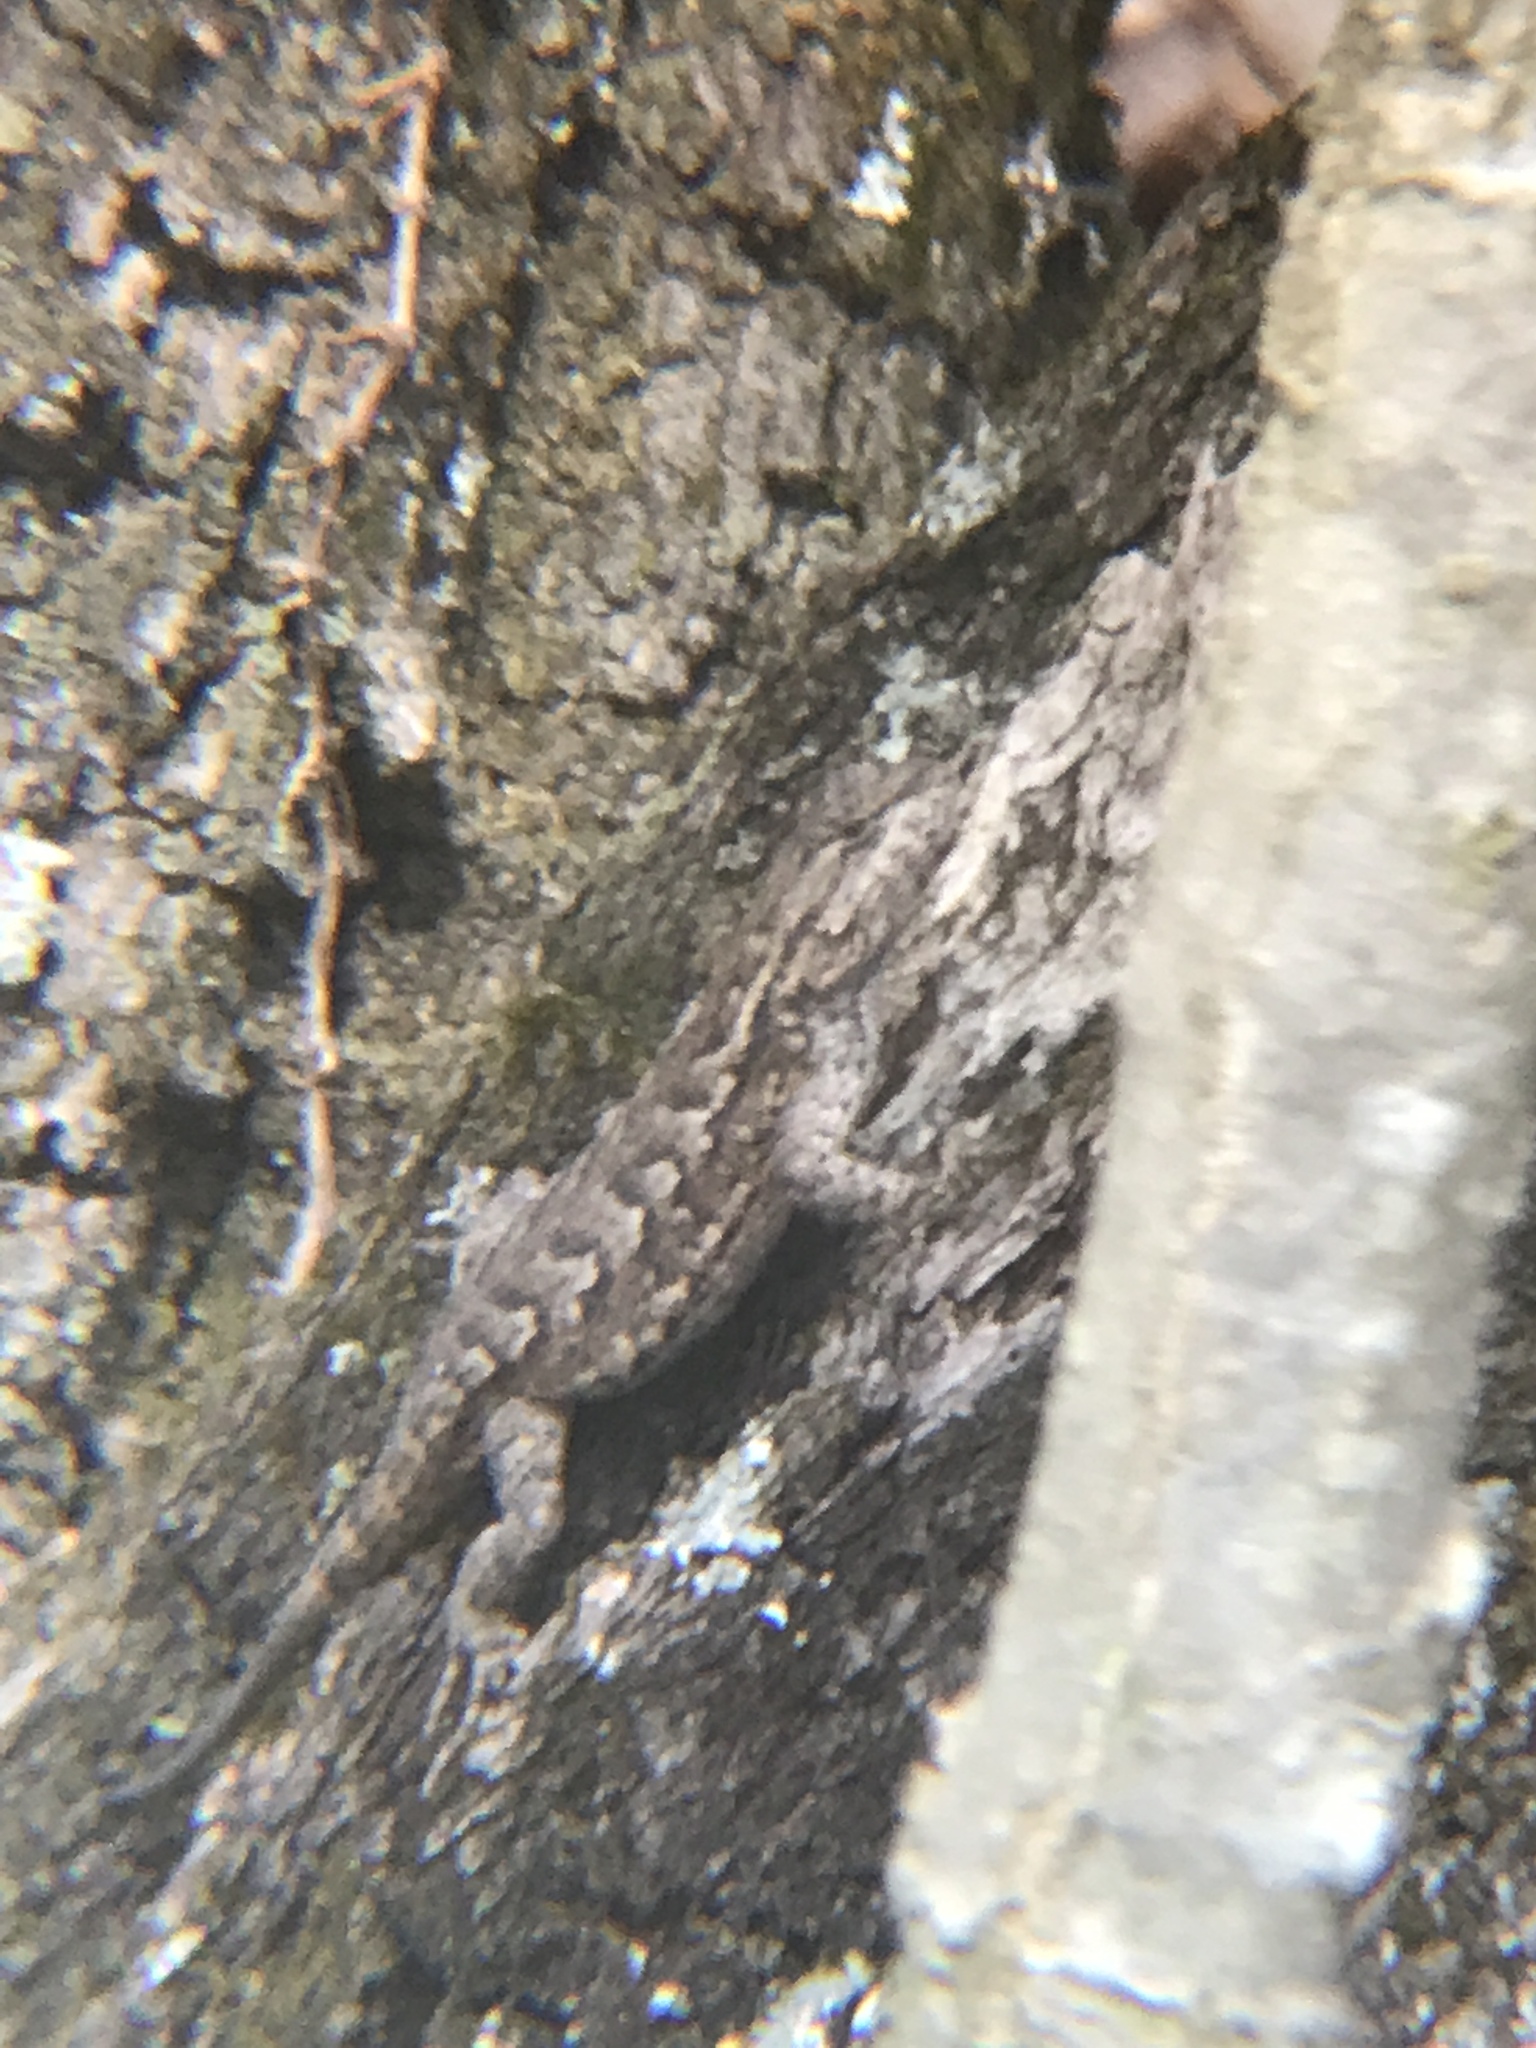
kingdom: Animalia
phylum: Chordata
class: Squamata
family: Phrynosomatidae
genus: Sceloporus
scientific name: Sceloporus undulatus
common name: Eastern fence lizard
